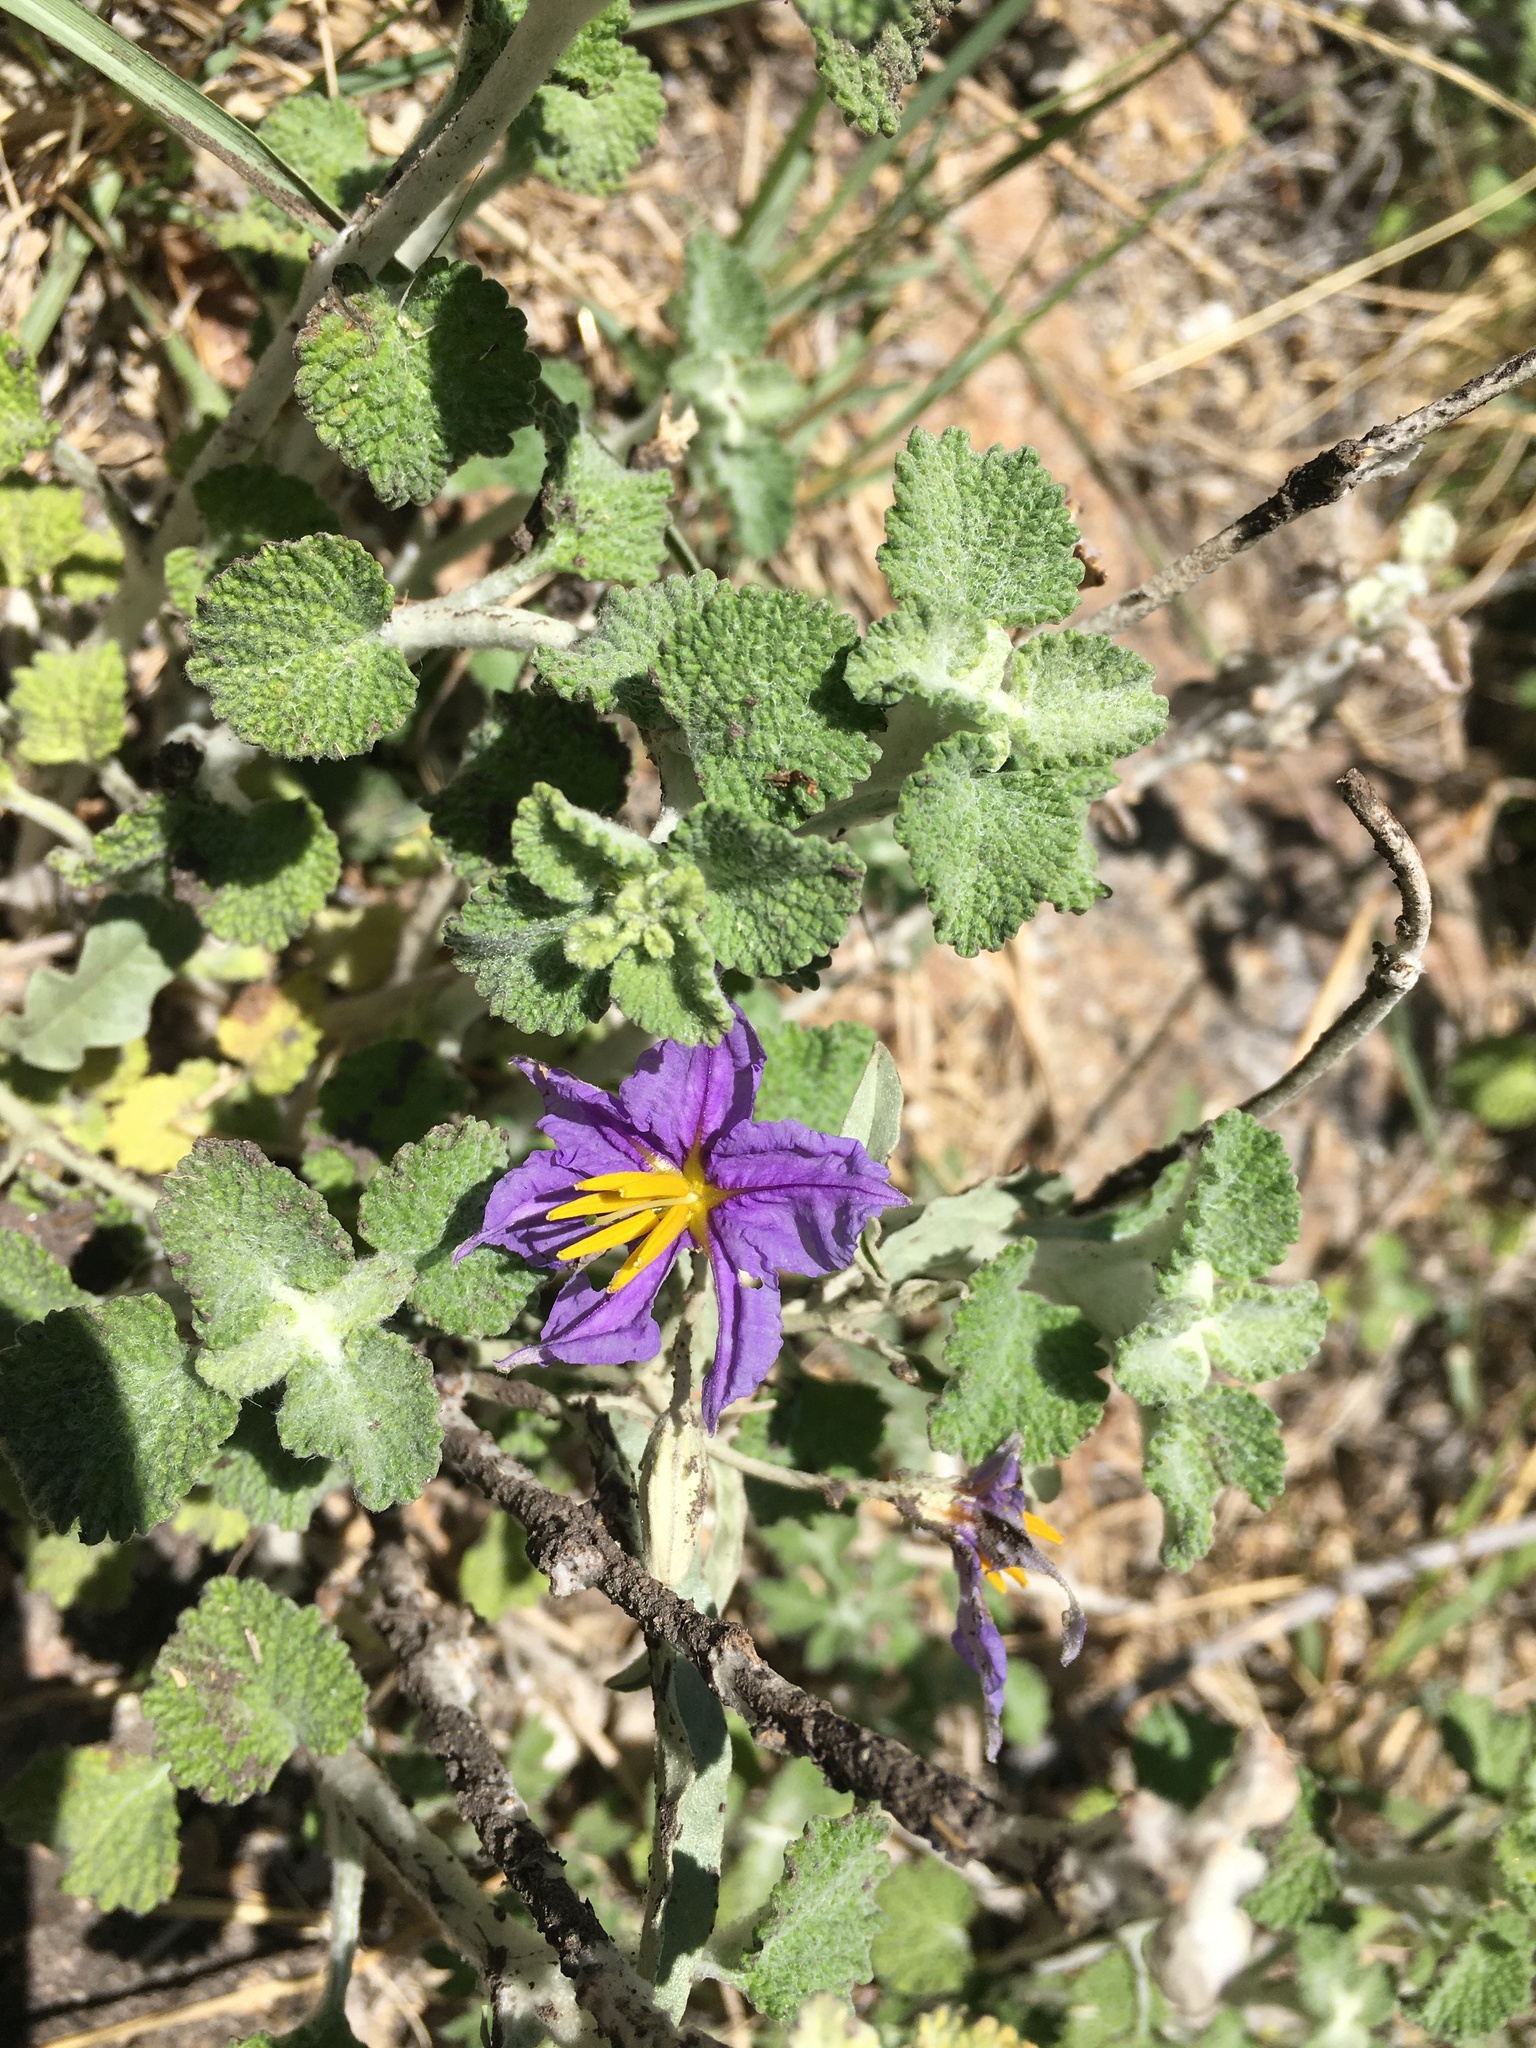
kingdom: Plantae
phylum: Tracheophyta
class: Magnoliopsida
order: Solanales
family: Solanaceae
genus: Solanum
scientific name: Solanum elaeagnifolium
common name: Silverleaf nightshade
